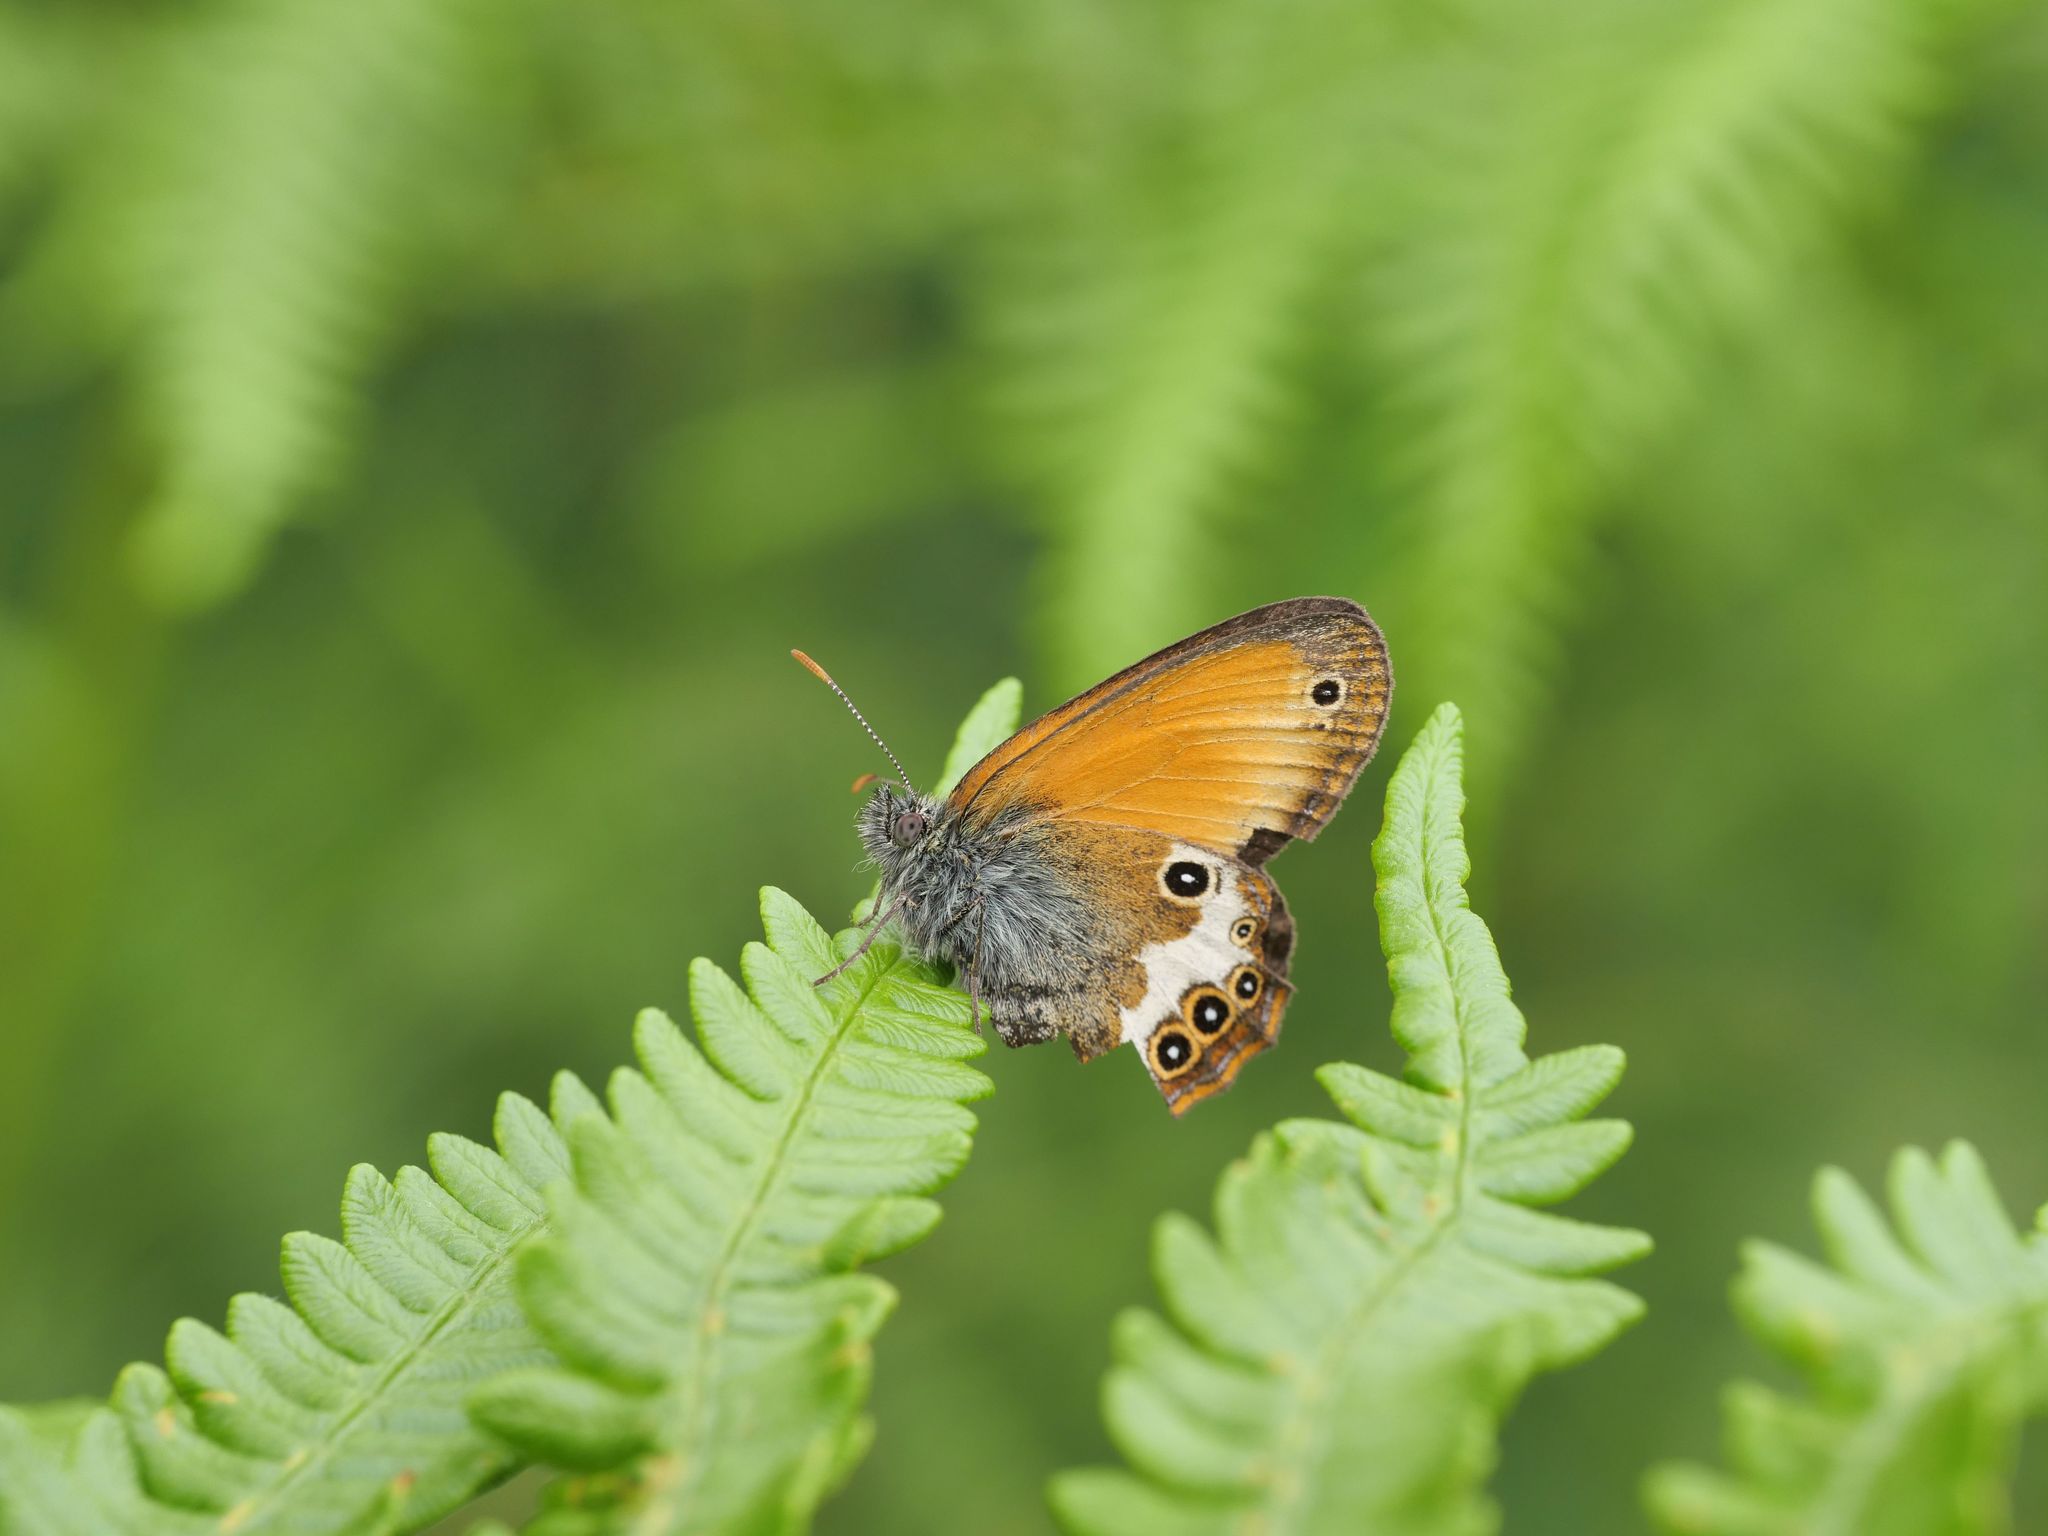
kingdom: Animalia
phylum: Arthropoda
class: Insecta
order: Lepidoptera
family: Nymphalidae
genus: Coenonympha
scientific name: Coenonympha arcania
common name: Pearly heath
